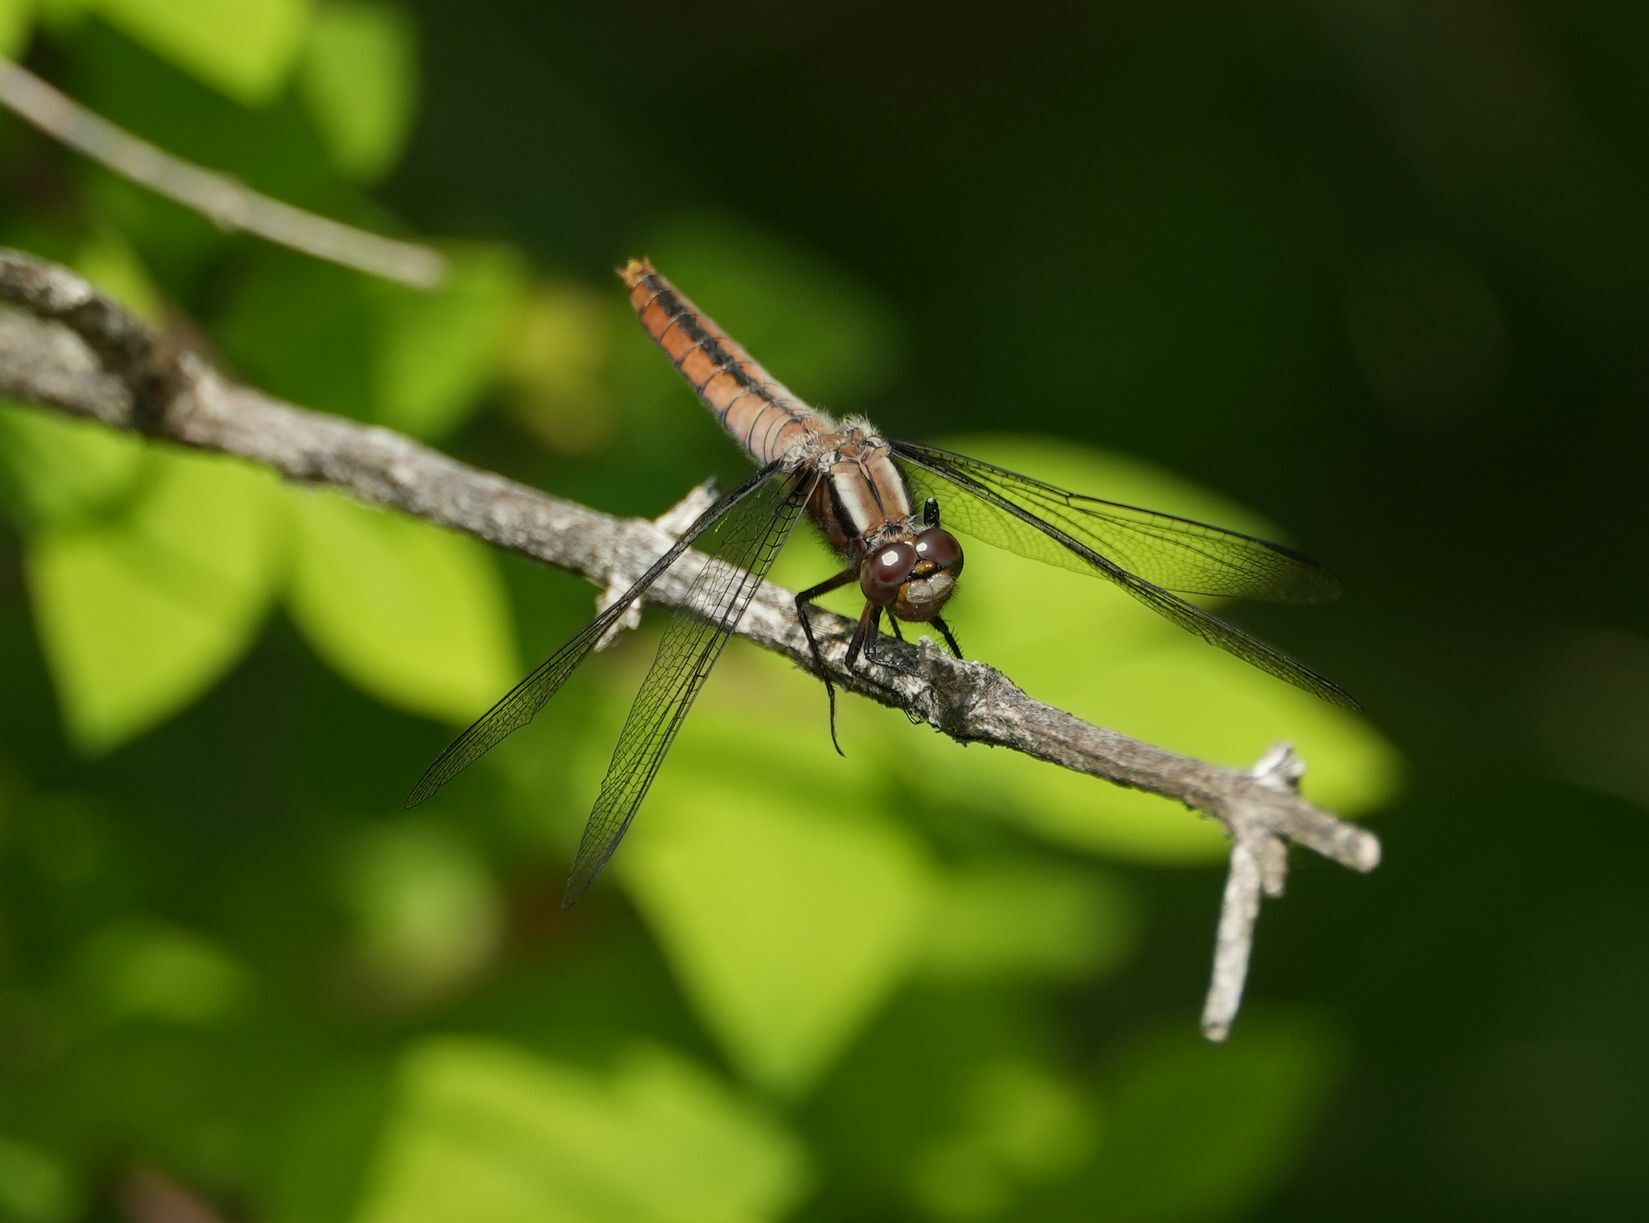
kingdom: Animalia
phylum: Arthropoda
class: Insecta
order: Odonata
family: Libellulidae
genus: Ladona
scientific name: Ladona julia
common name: Chalk-fronted corporal
